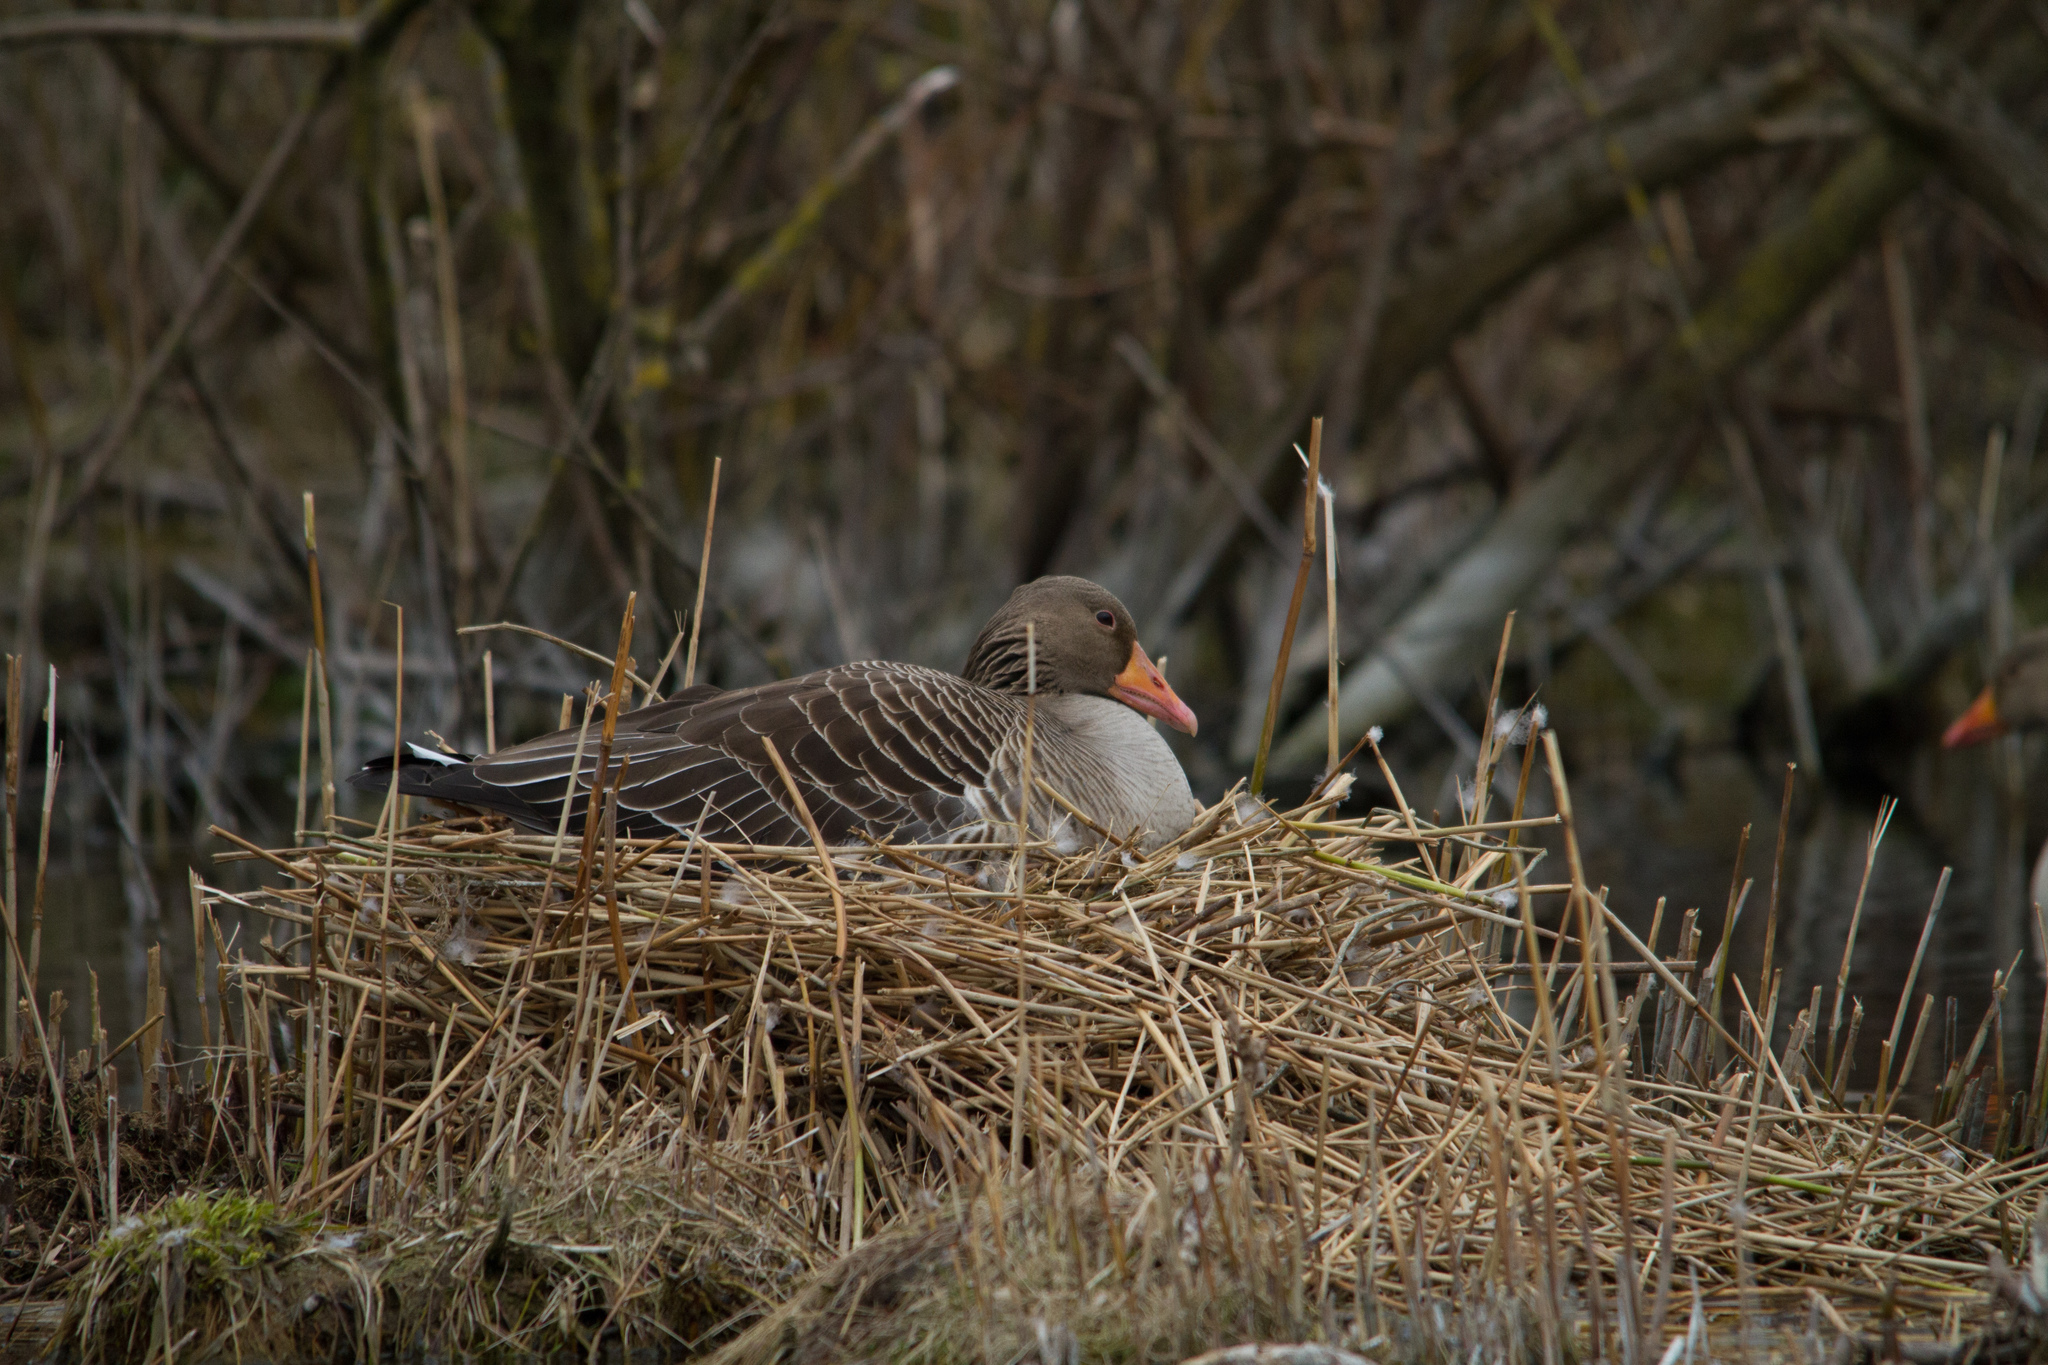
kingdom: Animalia
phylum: Chordata
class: Aves
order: Anseriformes
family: Anatidae
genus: Anser
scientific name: Anser anser
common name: Greylag goose
